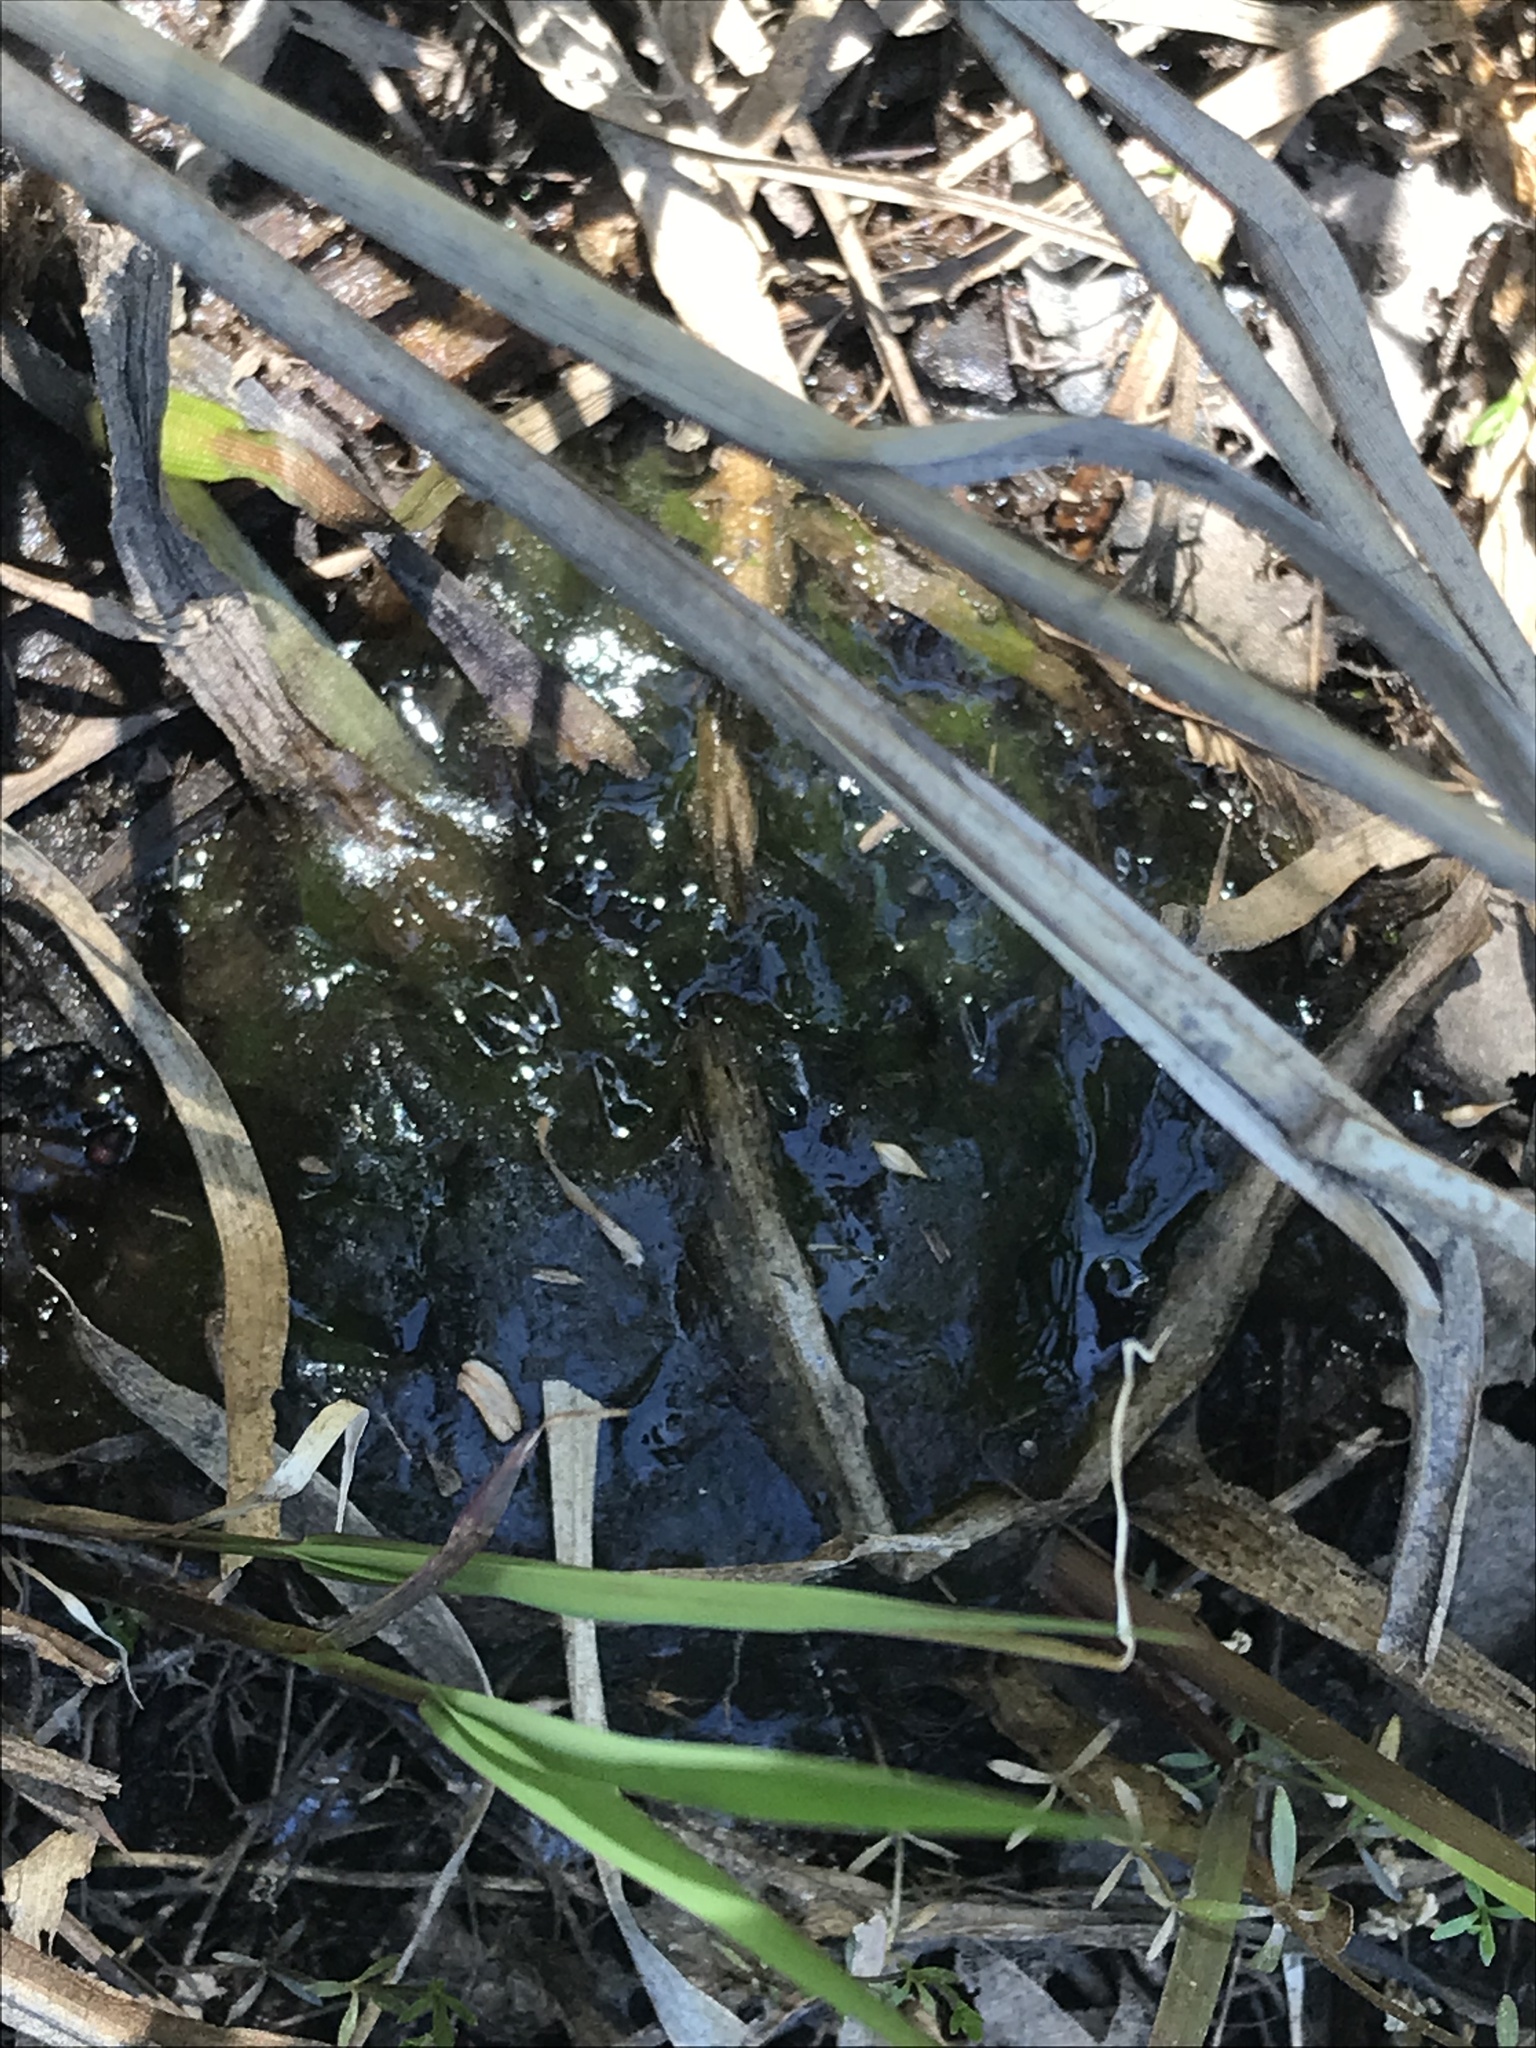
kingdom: Animalia
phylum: Chordata
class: Amphibia
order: Caudata
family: Ambystomatidae
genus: Ambystoma
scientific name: Ambystoma maculatum
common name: Spotted salamander
